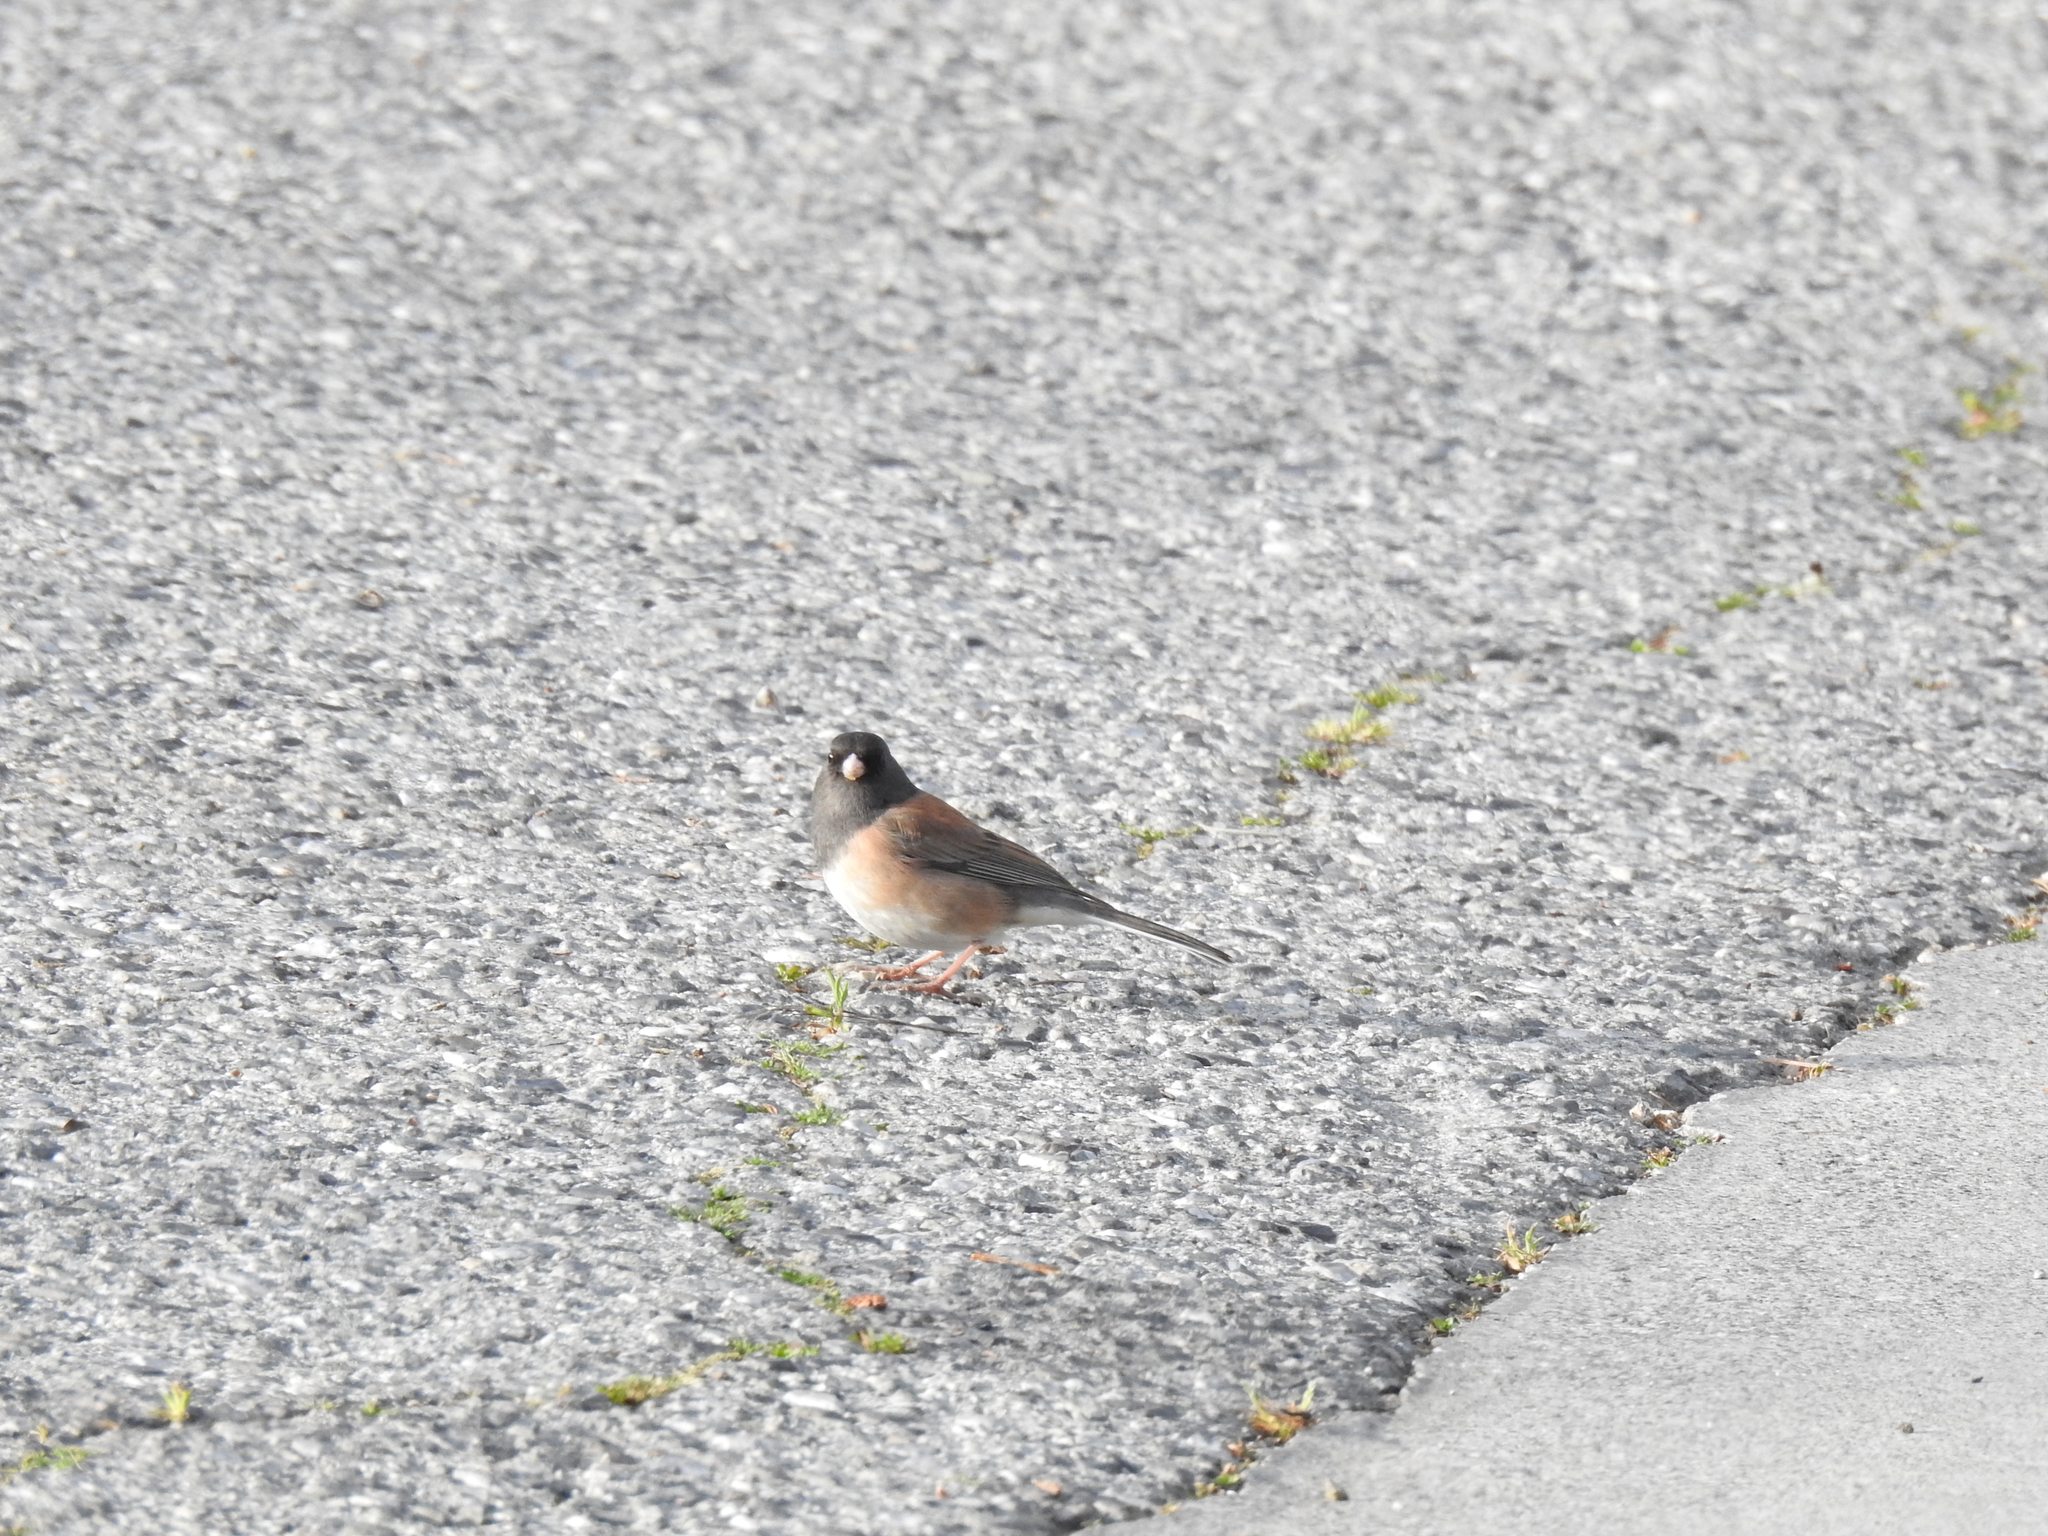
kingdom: Animalia
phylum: Chordata
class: Aves
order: Passeriformes
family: Passerellidae
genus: Junco
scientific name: Junco hyemalis
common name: Dark-eyed junco
